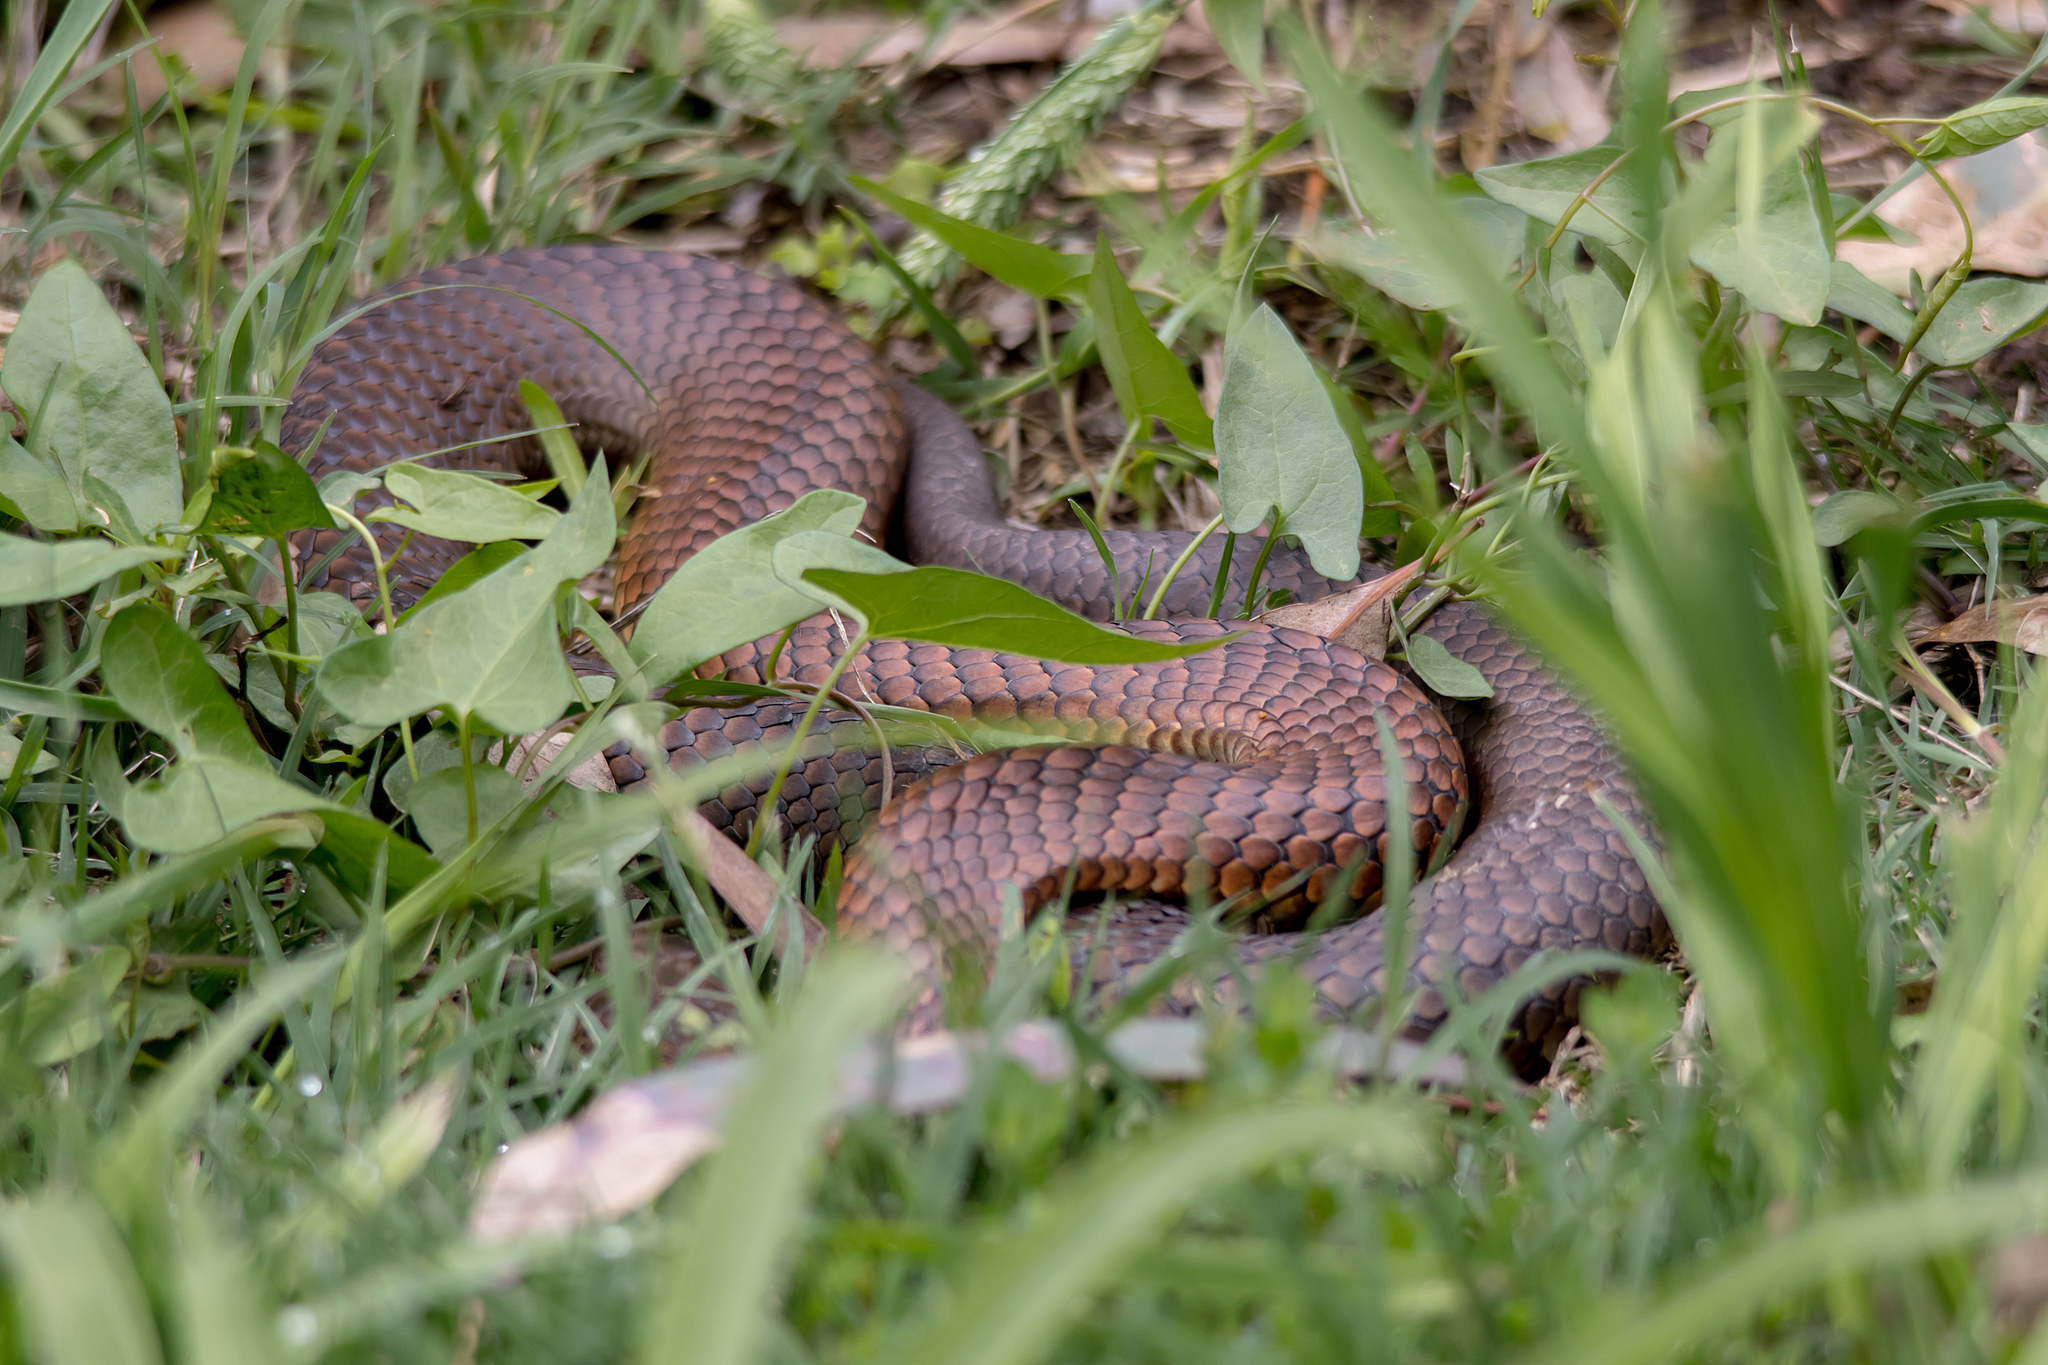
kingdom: Animalia
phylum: Chordata
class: Squamata
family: Elapidae
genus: Austrelaps
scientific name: Austrelaps superbus
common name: Copperhead snake
